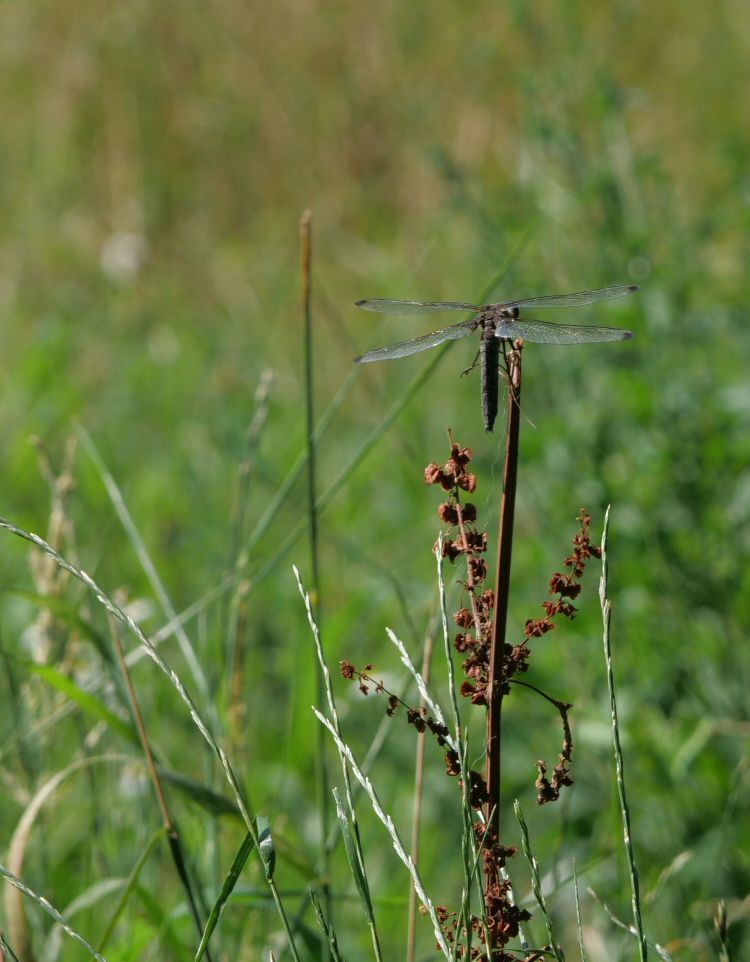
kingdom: Animalia
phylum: Arthropoda
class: Insecta
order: Odonata
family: Libellulidae
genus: Libellula
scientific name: Libellula fulva
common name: Blue chaser
